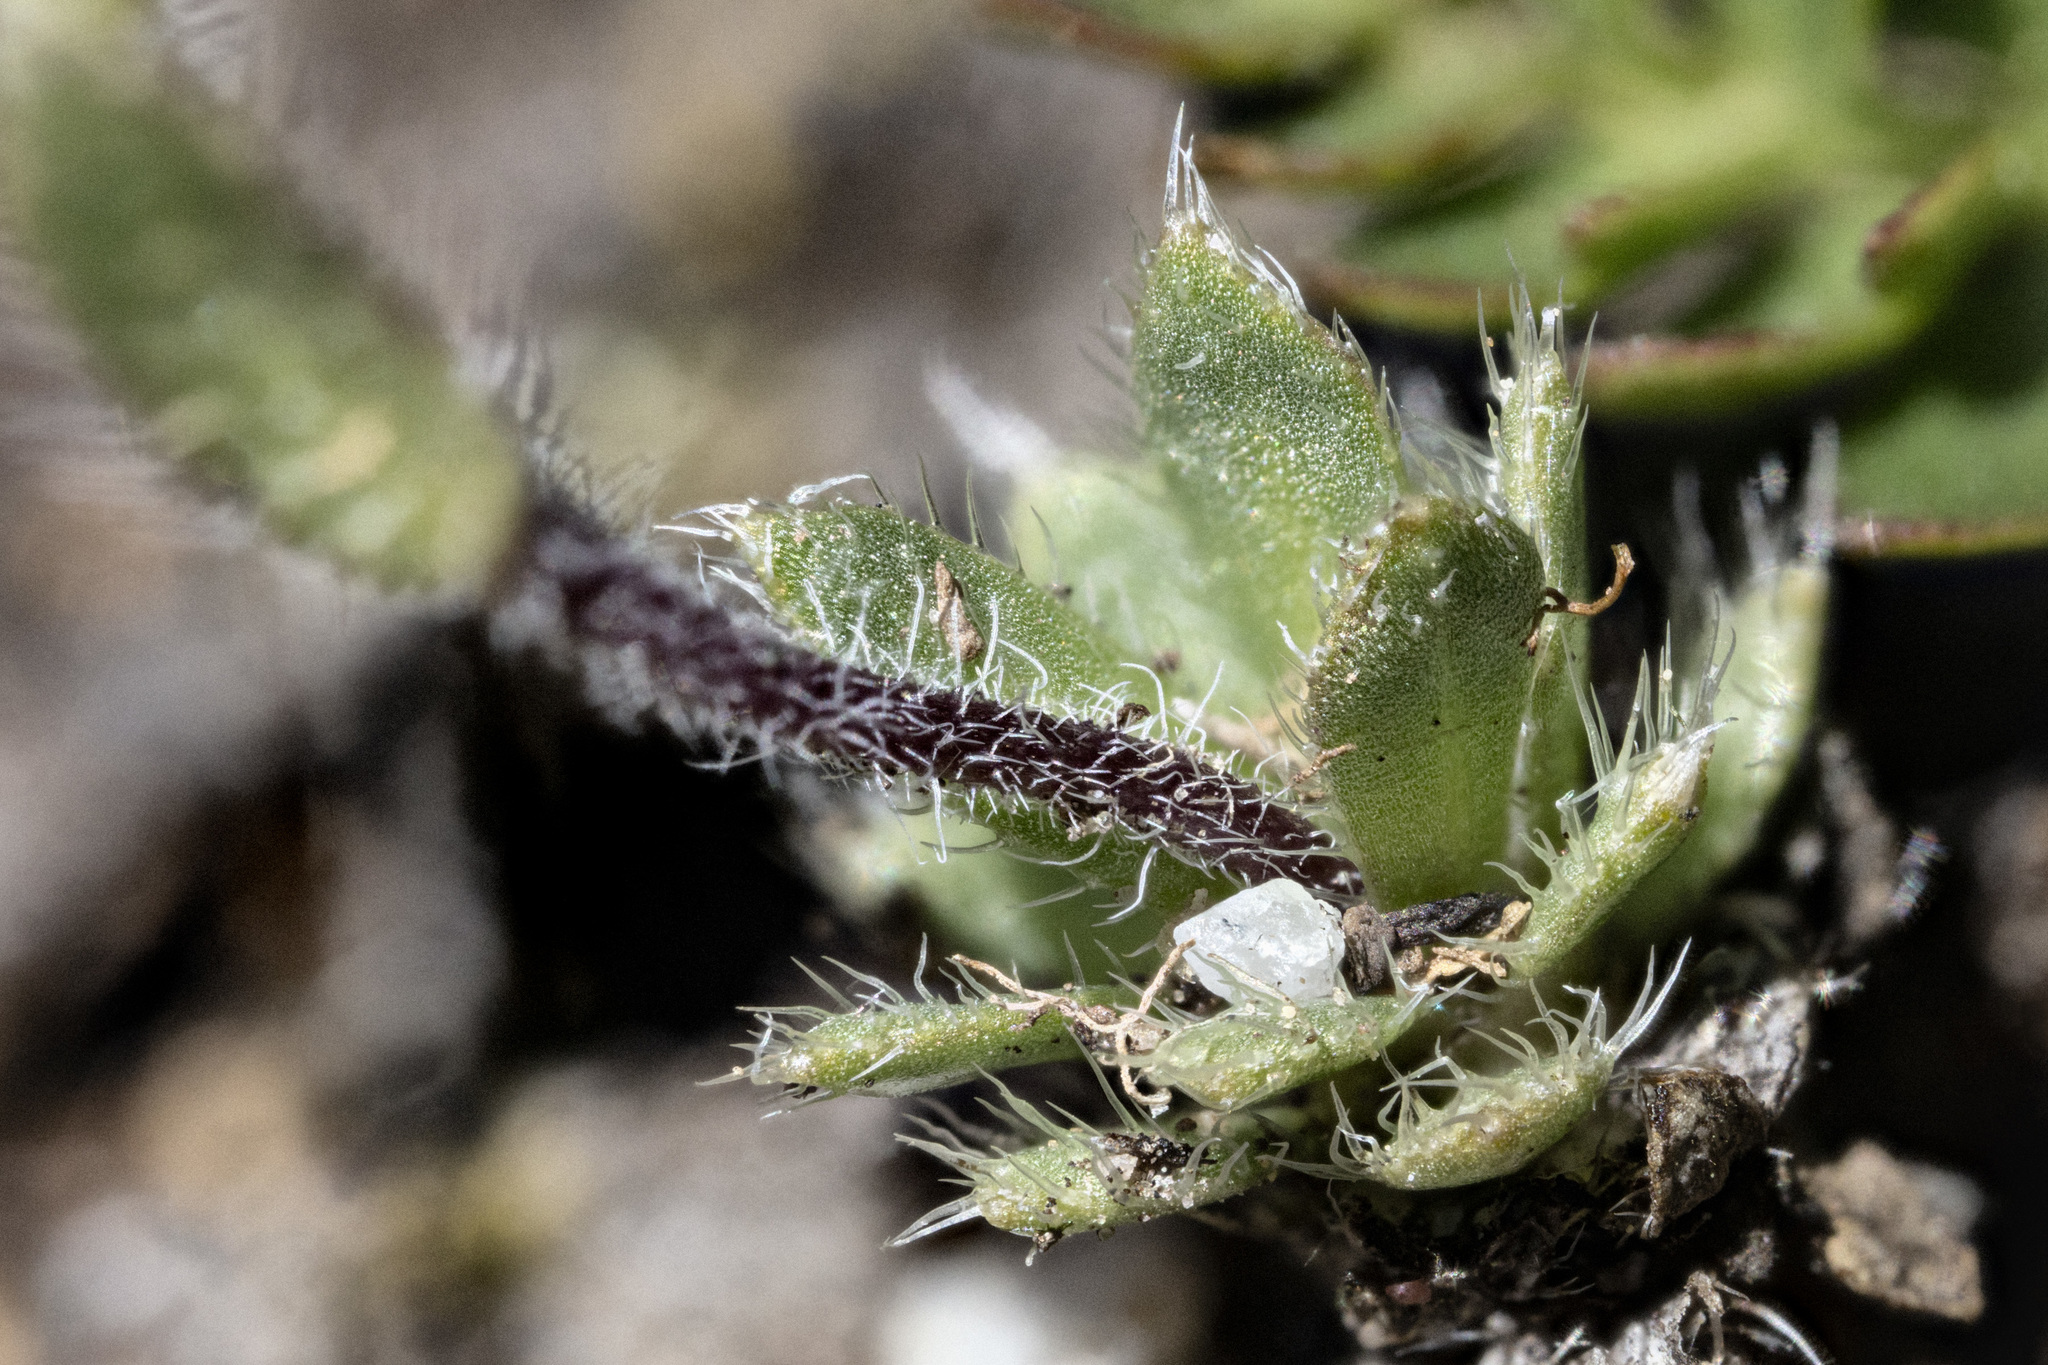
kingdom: Plantae
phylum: Tracheophyta
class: Magnoliopsida
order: Brassicales
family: Brassicaceae
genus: Draba
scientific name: Draba heilii
